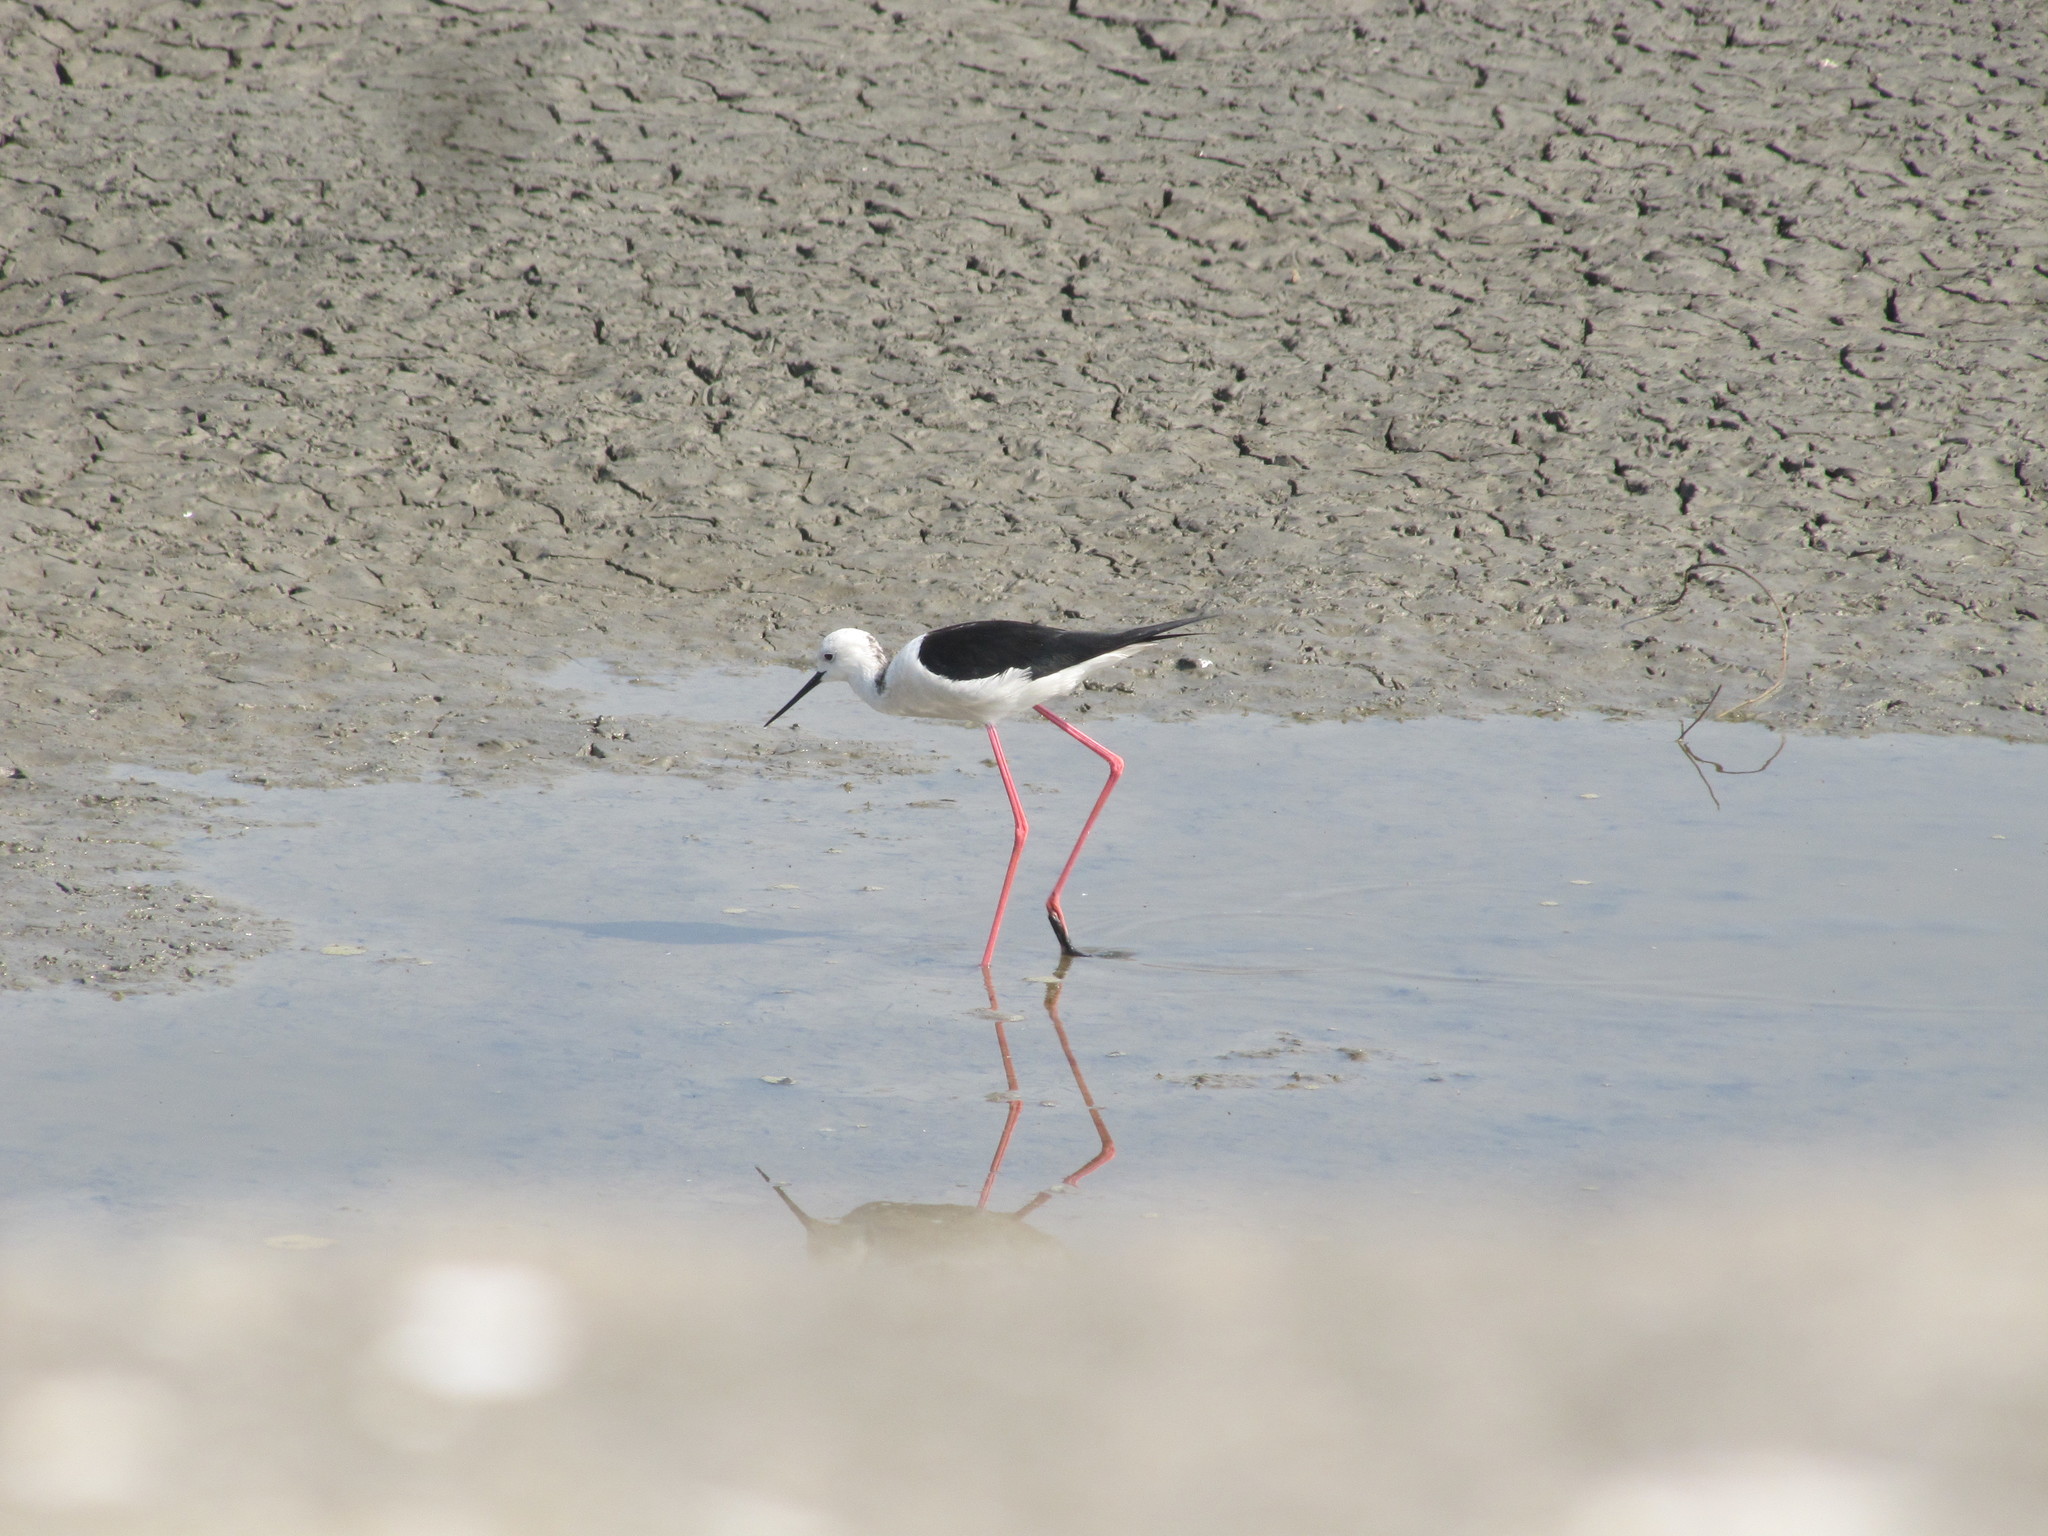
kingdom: Animalia
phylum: Chordata
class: Aves
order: Charadriiformes
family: Recurvirostridae
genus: Himantopus
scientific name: Himantopus himantopus
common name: Black-winged stilt
